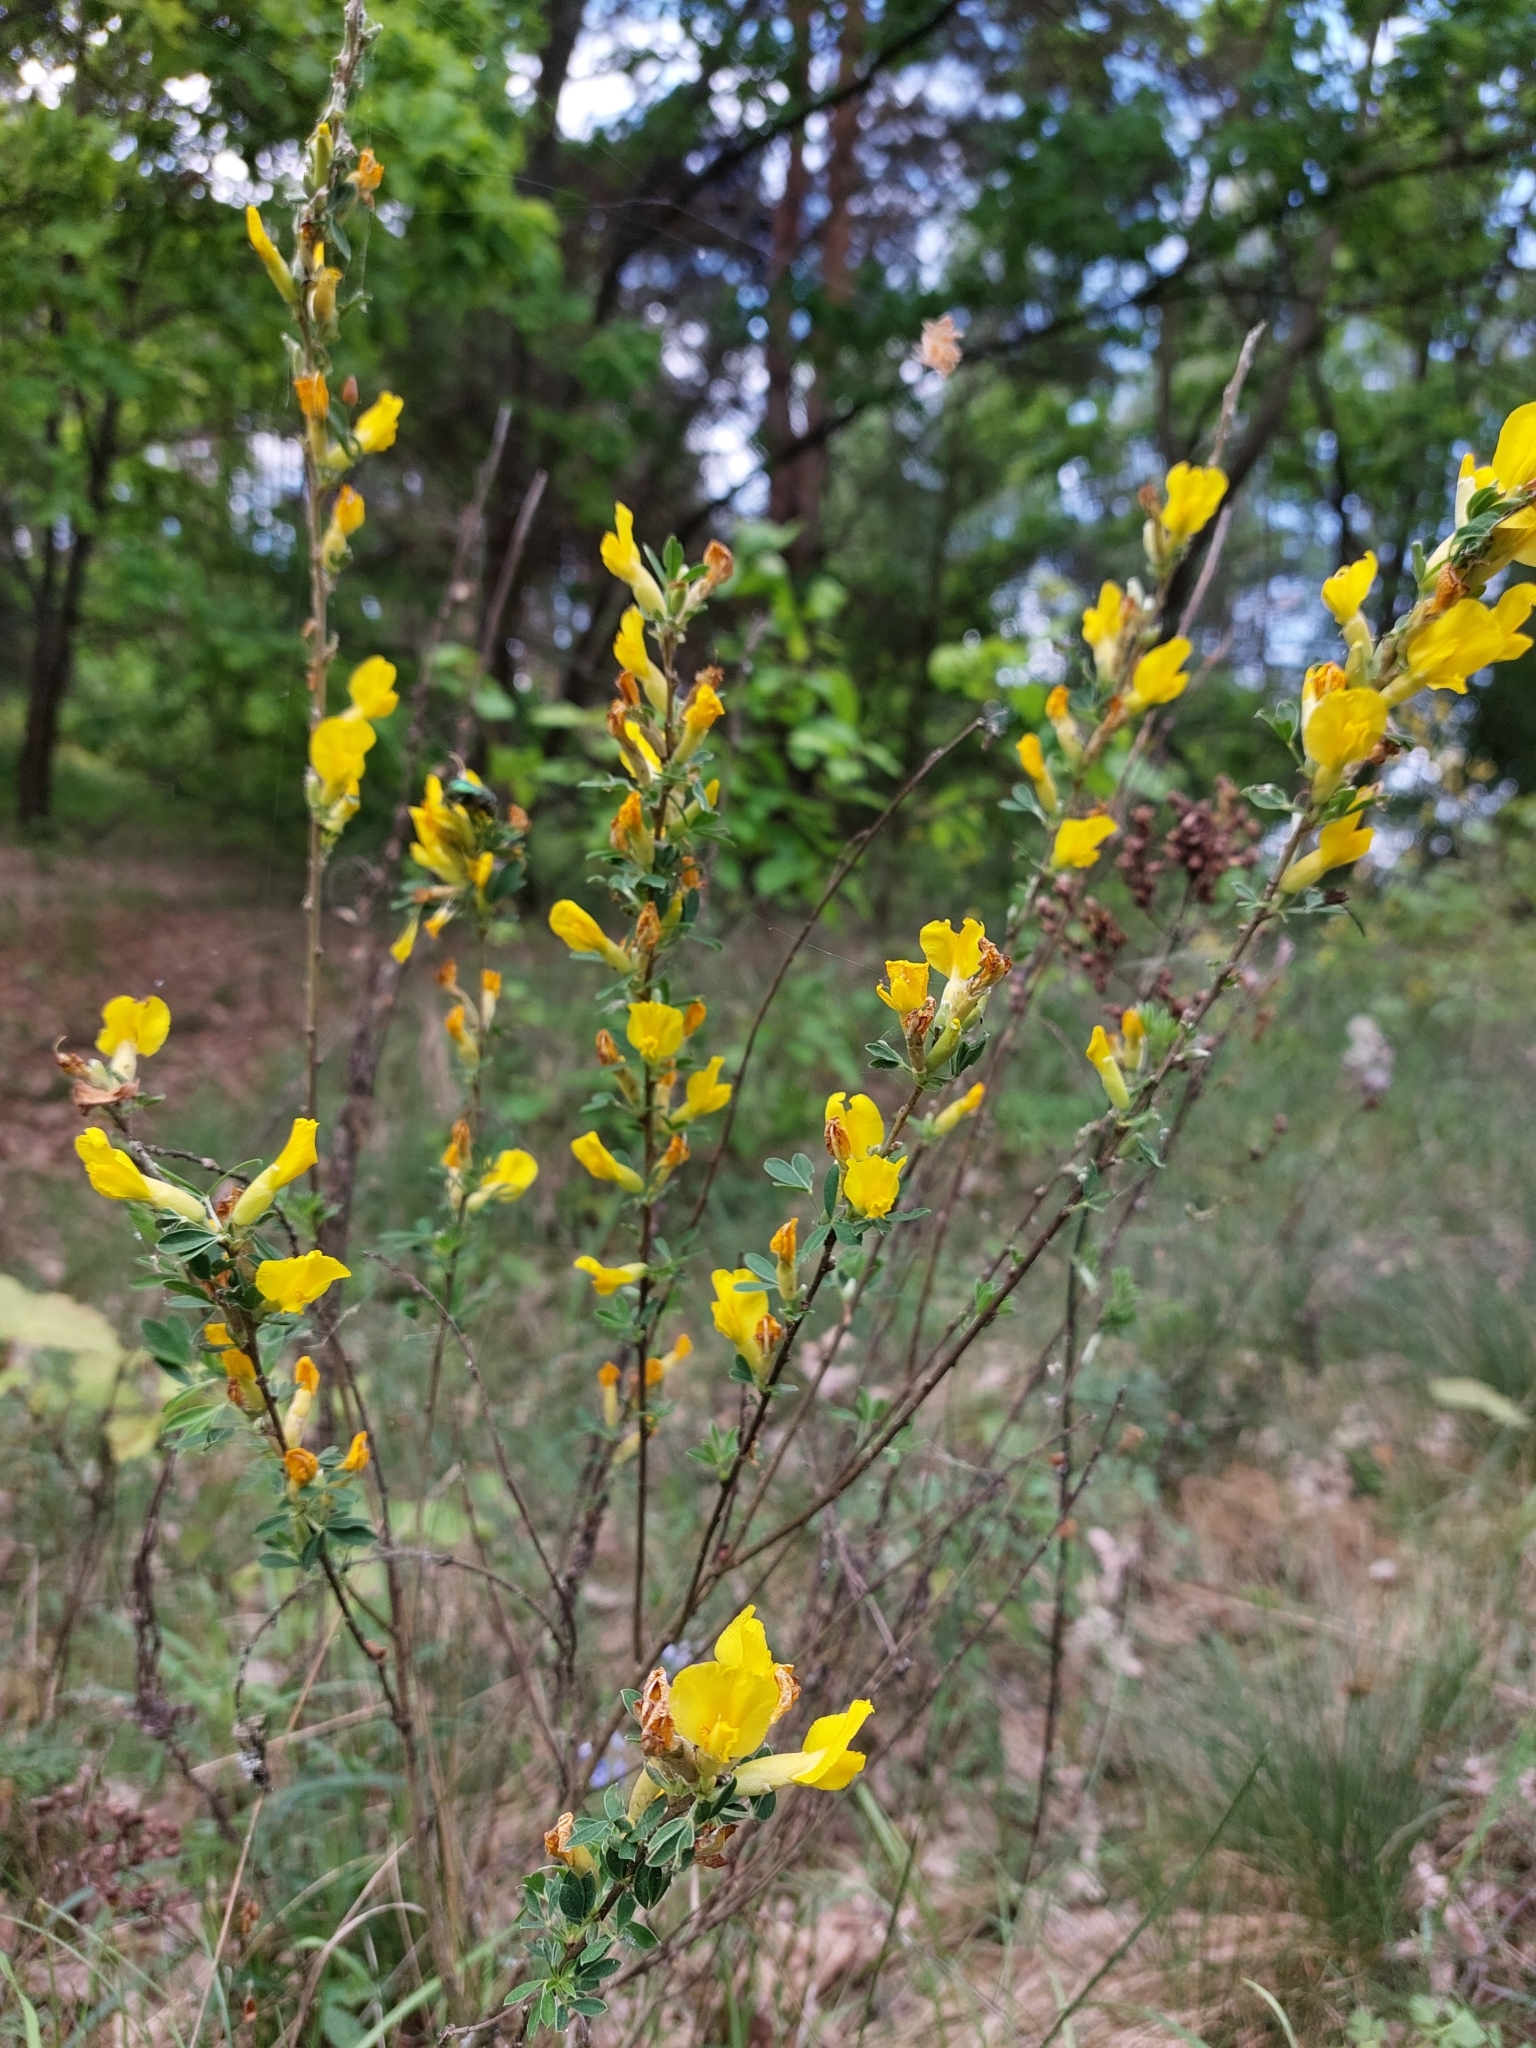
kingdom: Plantae
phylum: Tracheophyta
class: Magnoliopsida
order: Fabales
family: Fabaceae
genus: Chamaecytisus
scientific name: Chamaecytisus ruthenicus
